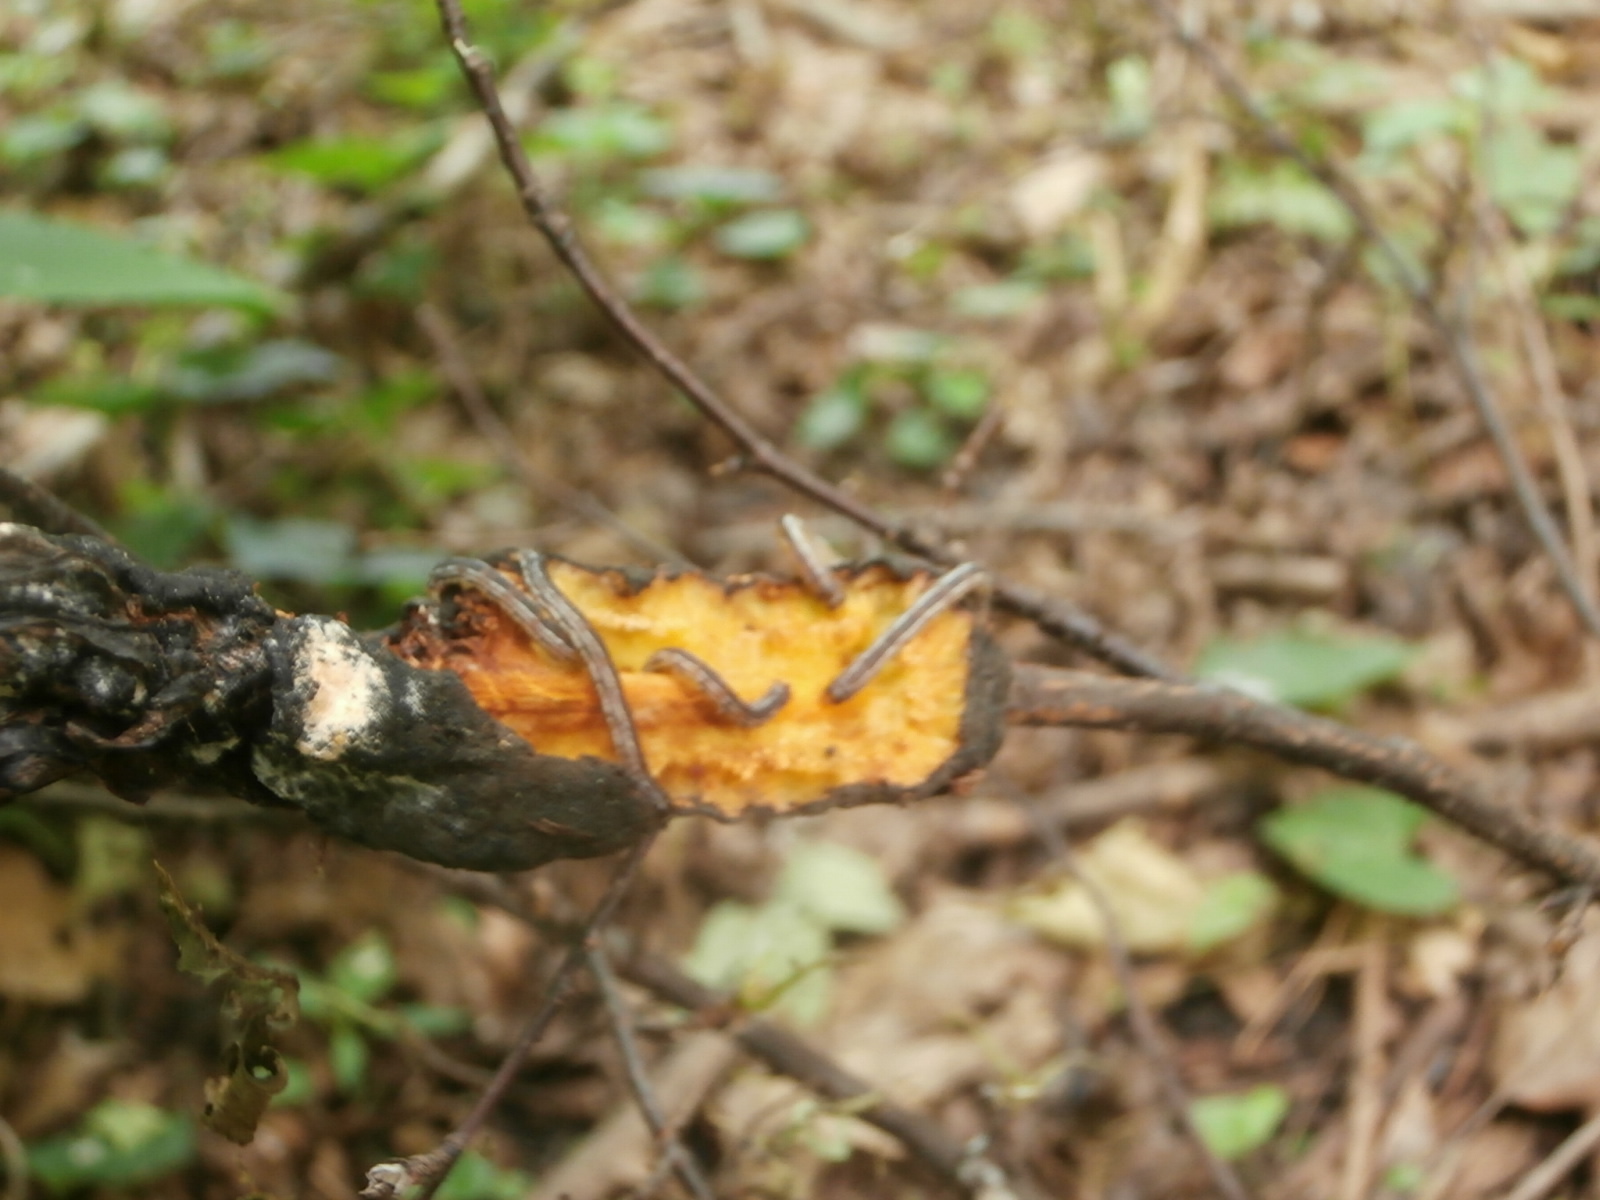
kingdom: Animalia
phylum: Arthropoda
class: Insecta
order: Lepidoptera
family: Geometridae
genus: Alsophila
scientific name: Alsophila pometaria
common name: Fall cankerworm
